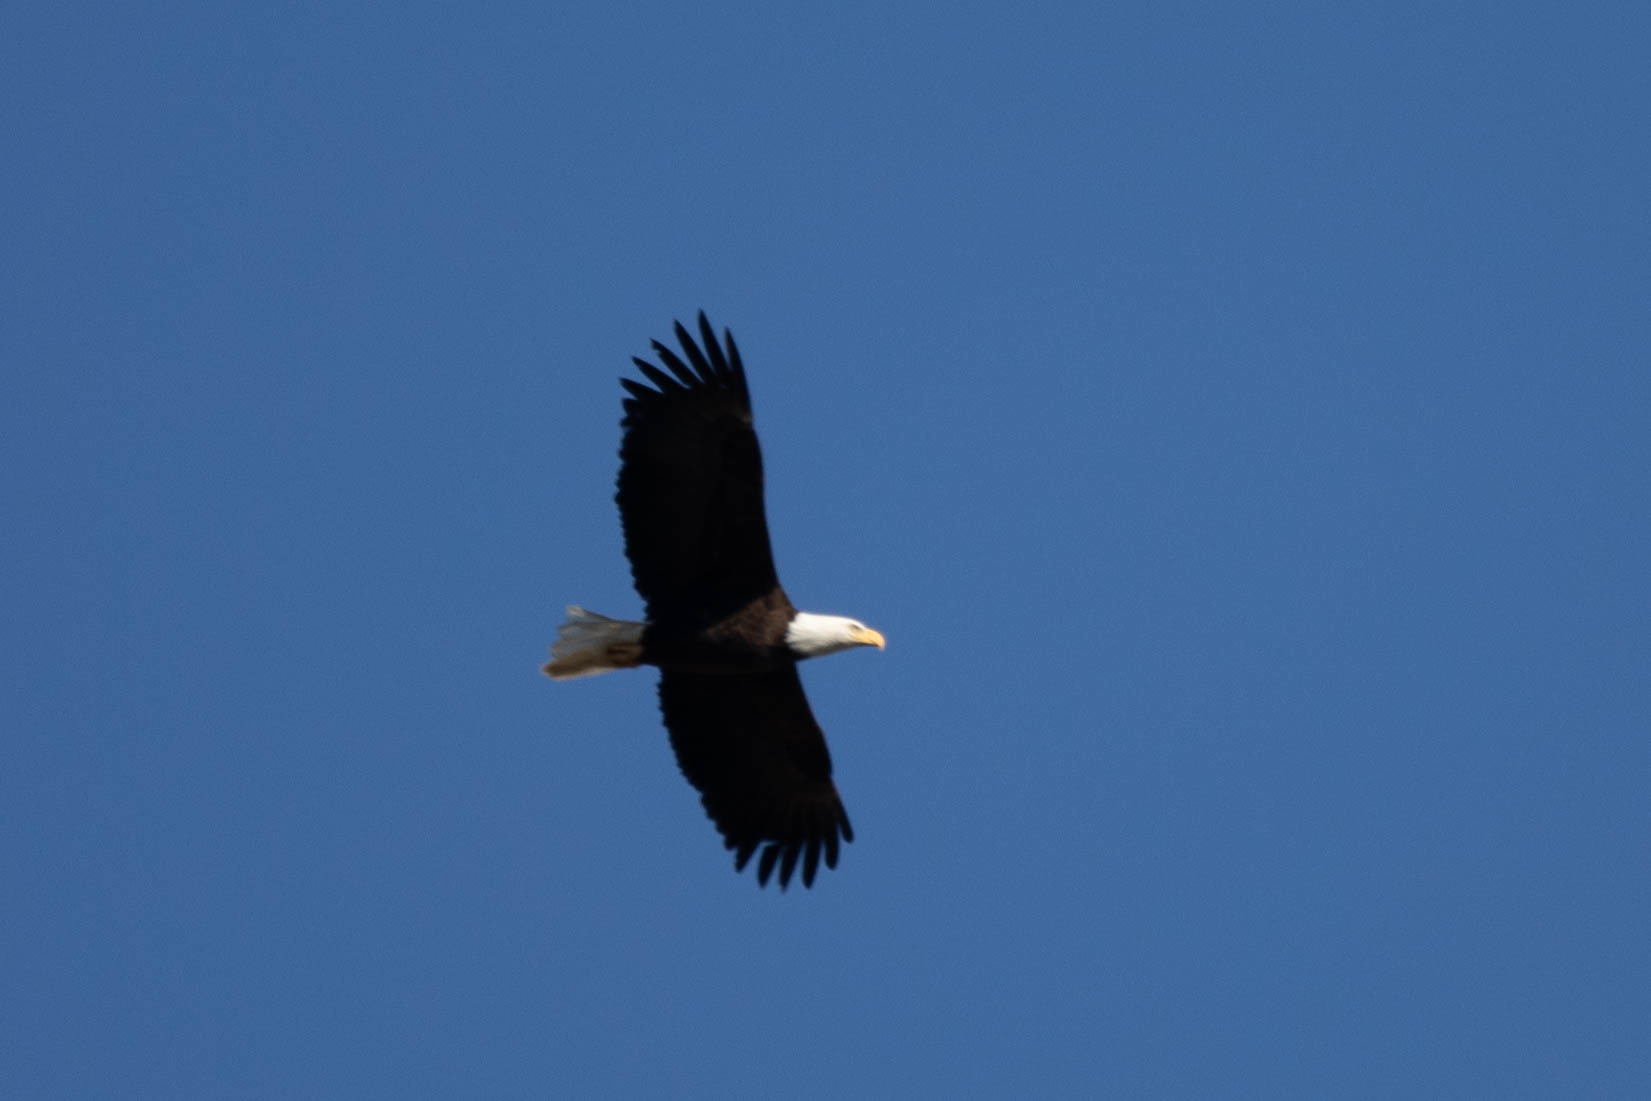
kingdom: Animalia
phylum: Chordata
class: Aves
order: Accipitriformes
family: Accipitridae
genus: Haliaeetus
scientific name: Haliaeetus leucocephalus
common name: Bald eagle
